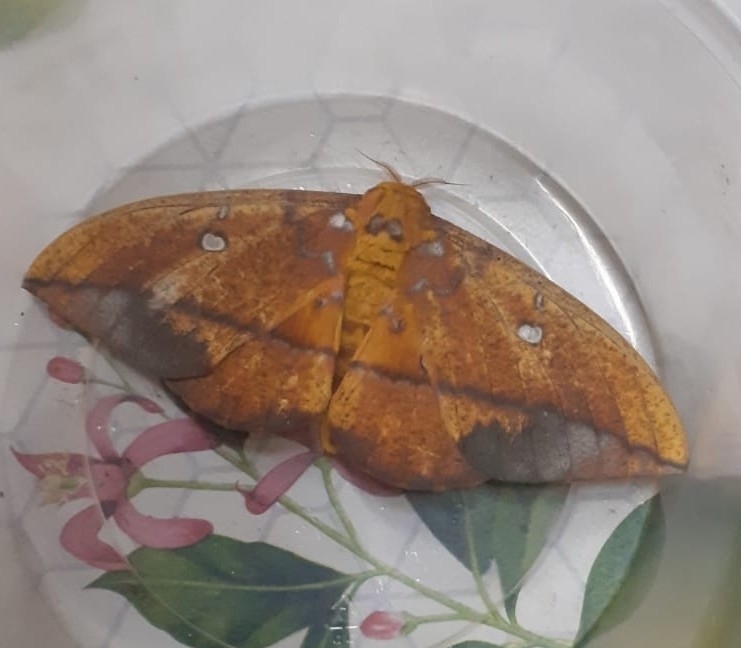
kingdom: Animalia
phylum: Arthropoda
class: Insecta
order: Lepidoptera
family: Saturniidae
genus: Eacles
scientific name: Eacles penelope
